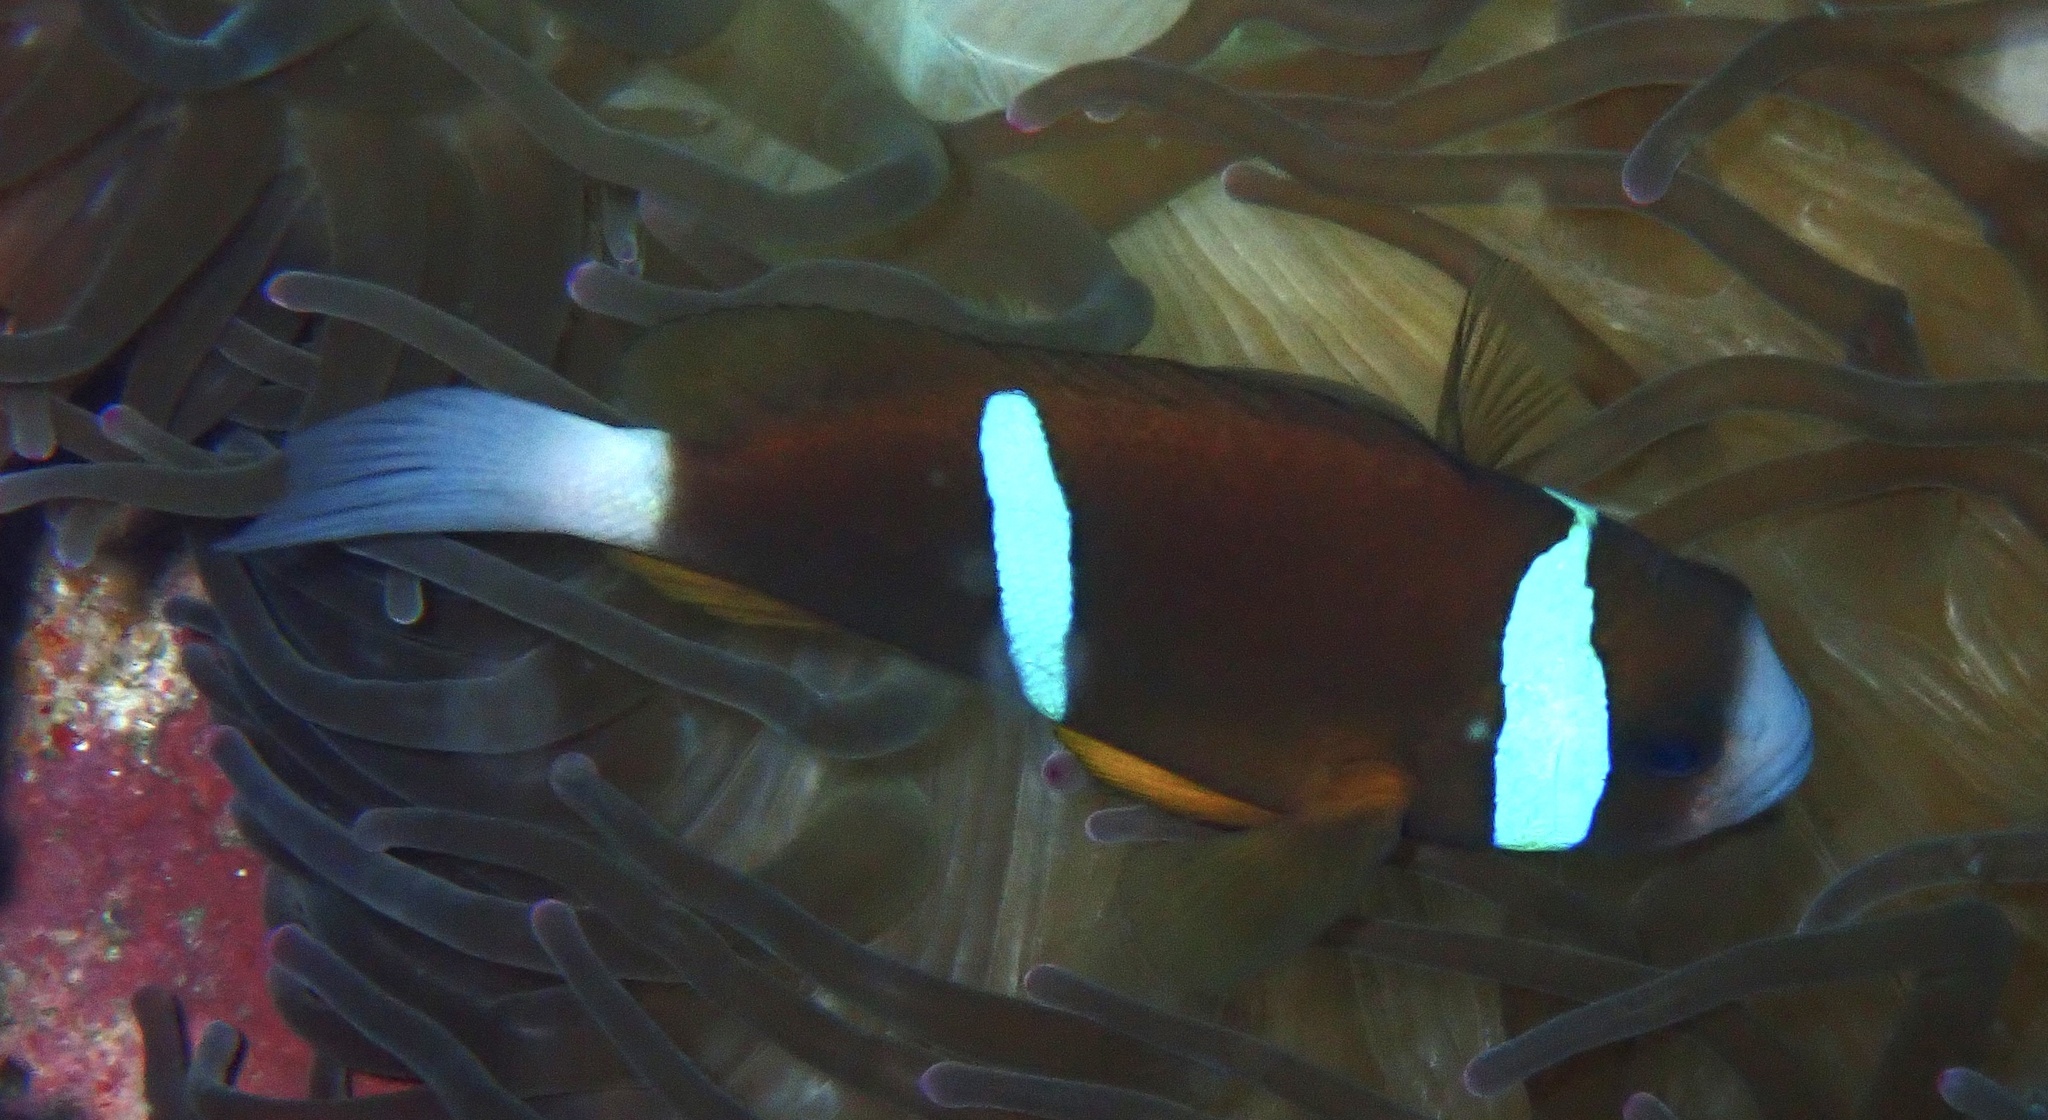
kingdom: Animalia
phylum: Chordata
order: Perciformes
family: Pomacentridae
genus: Amphiprion
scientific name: Amphiprion akindynos
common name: Barrier reef anemonefish
